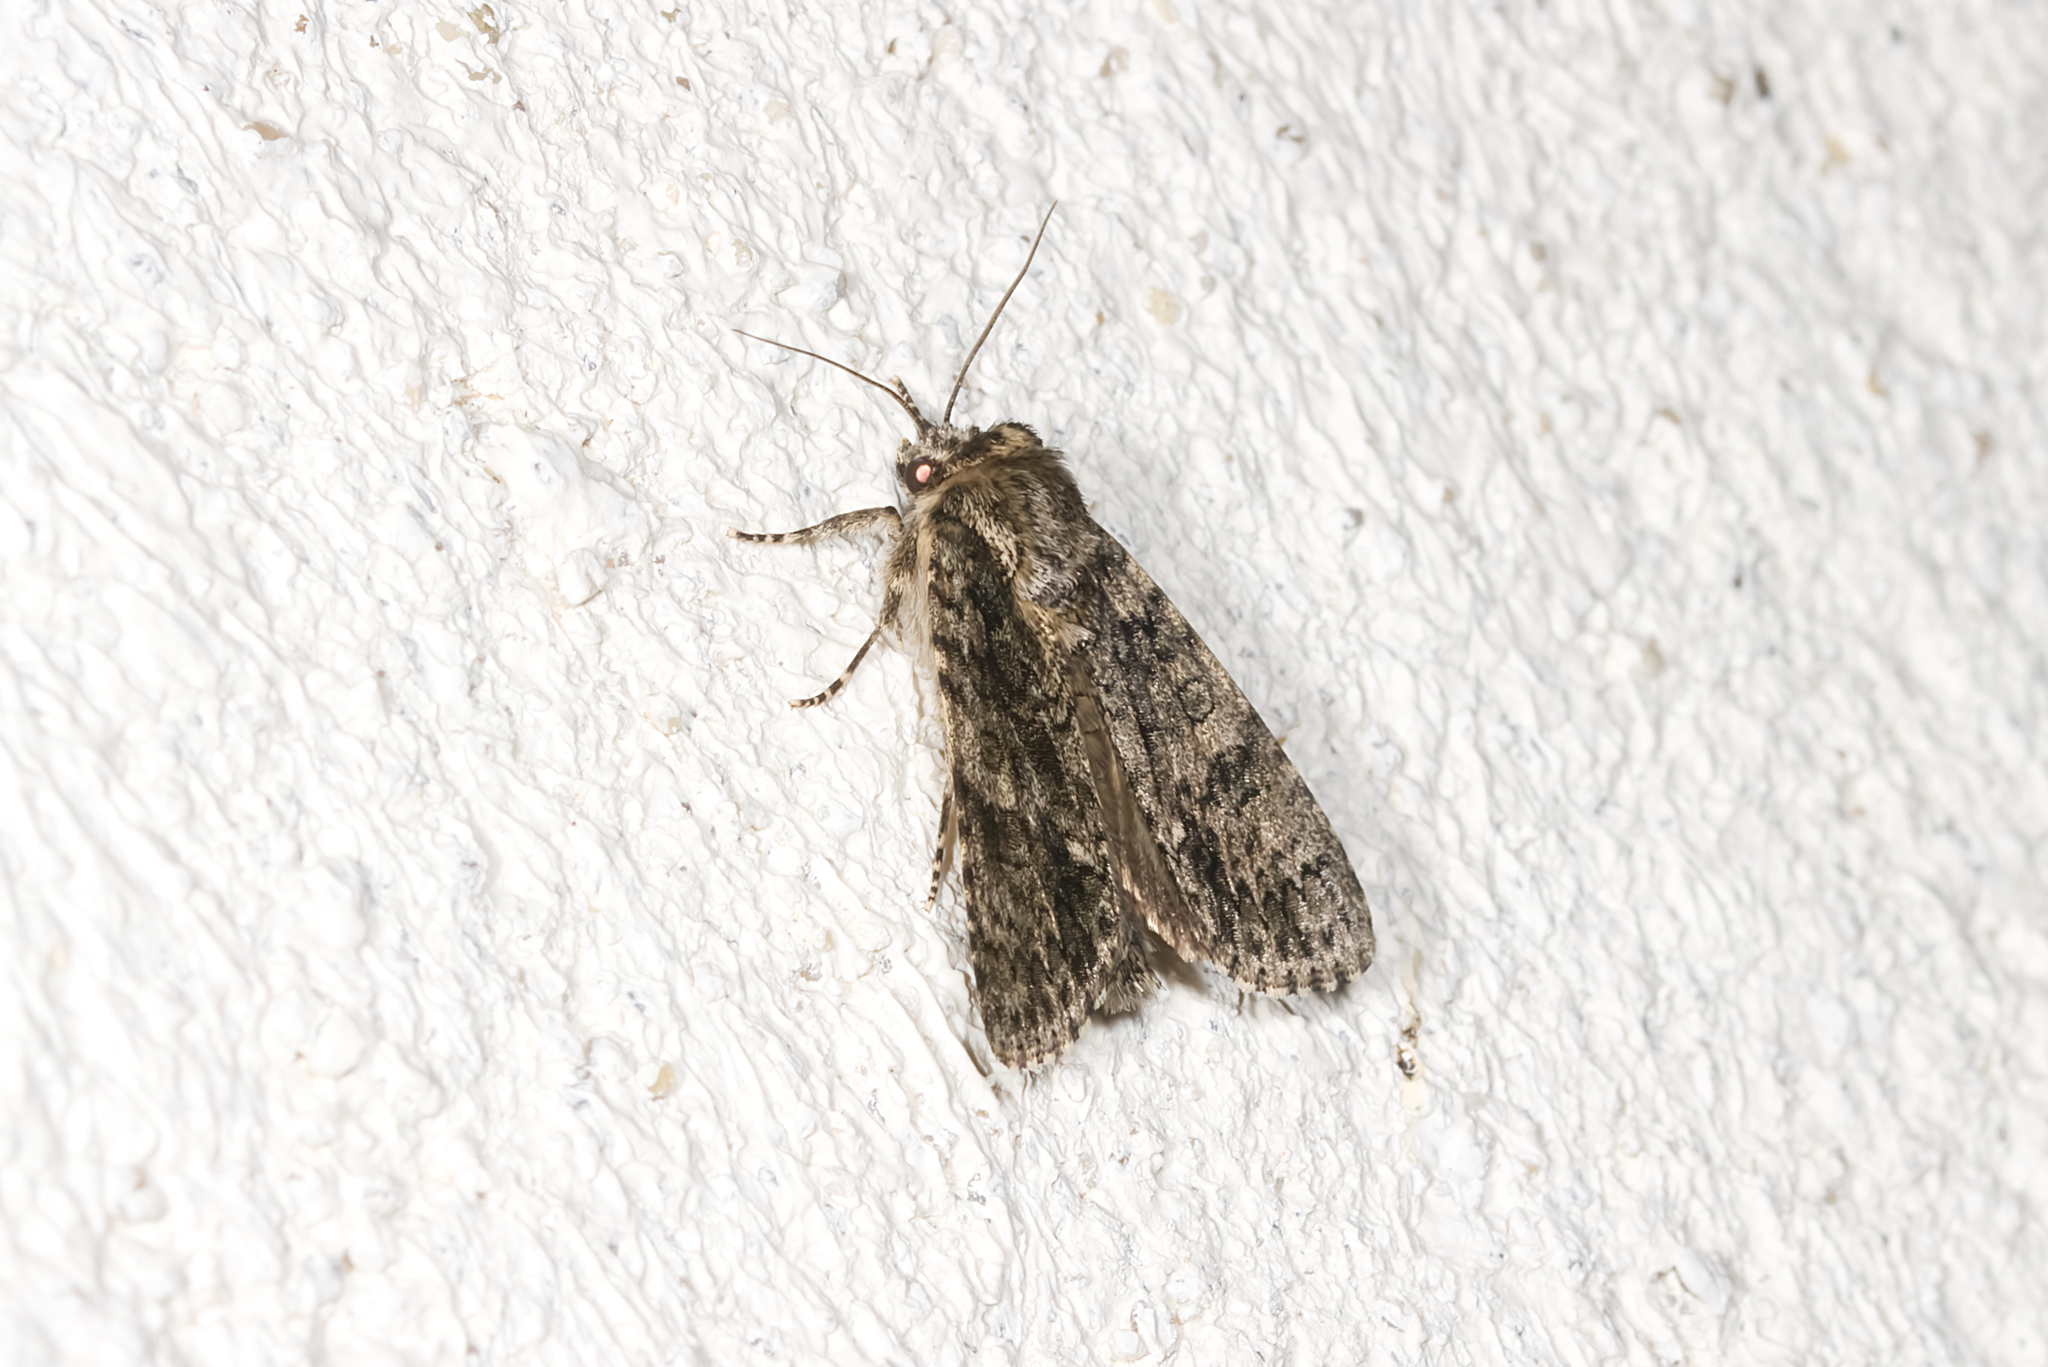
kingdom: Animalia
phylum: Arthropoda
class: Insecta
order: Lepidoptera
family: Noctuidae
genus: Acronicta
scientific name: Acronicta rumicis
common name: Knot grass
